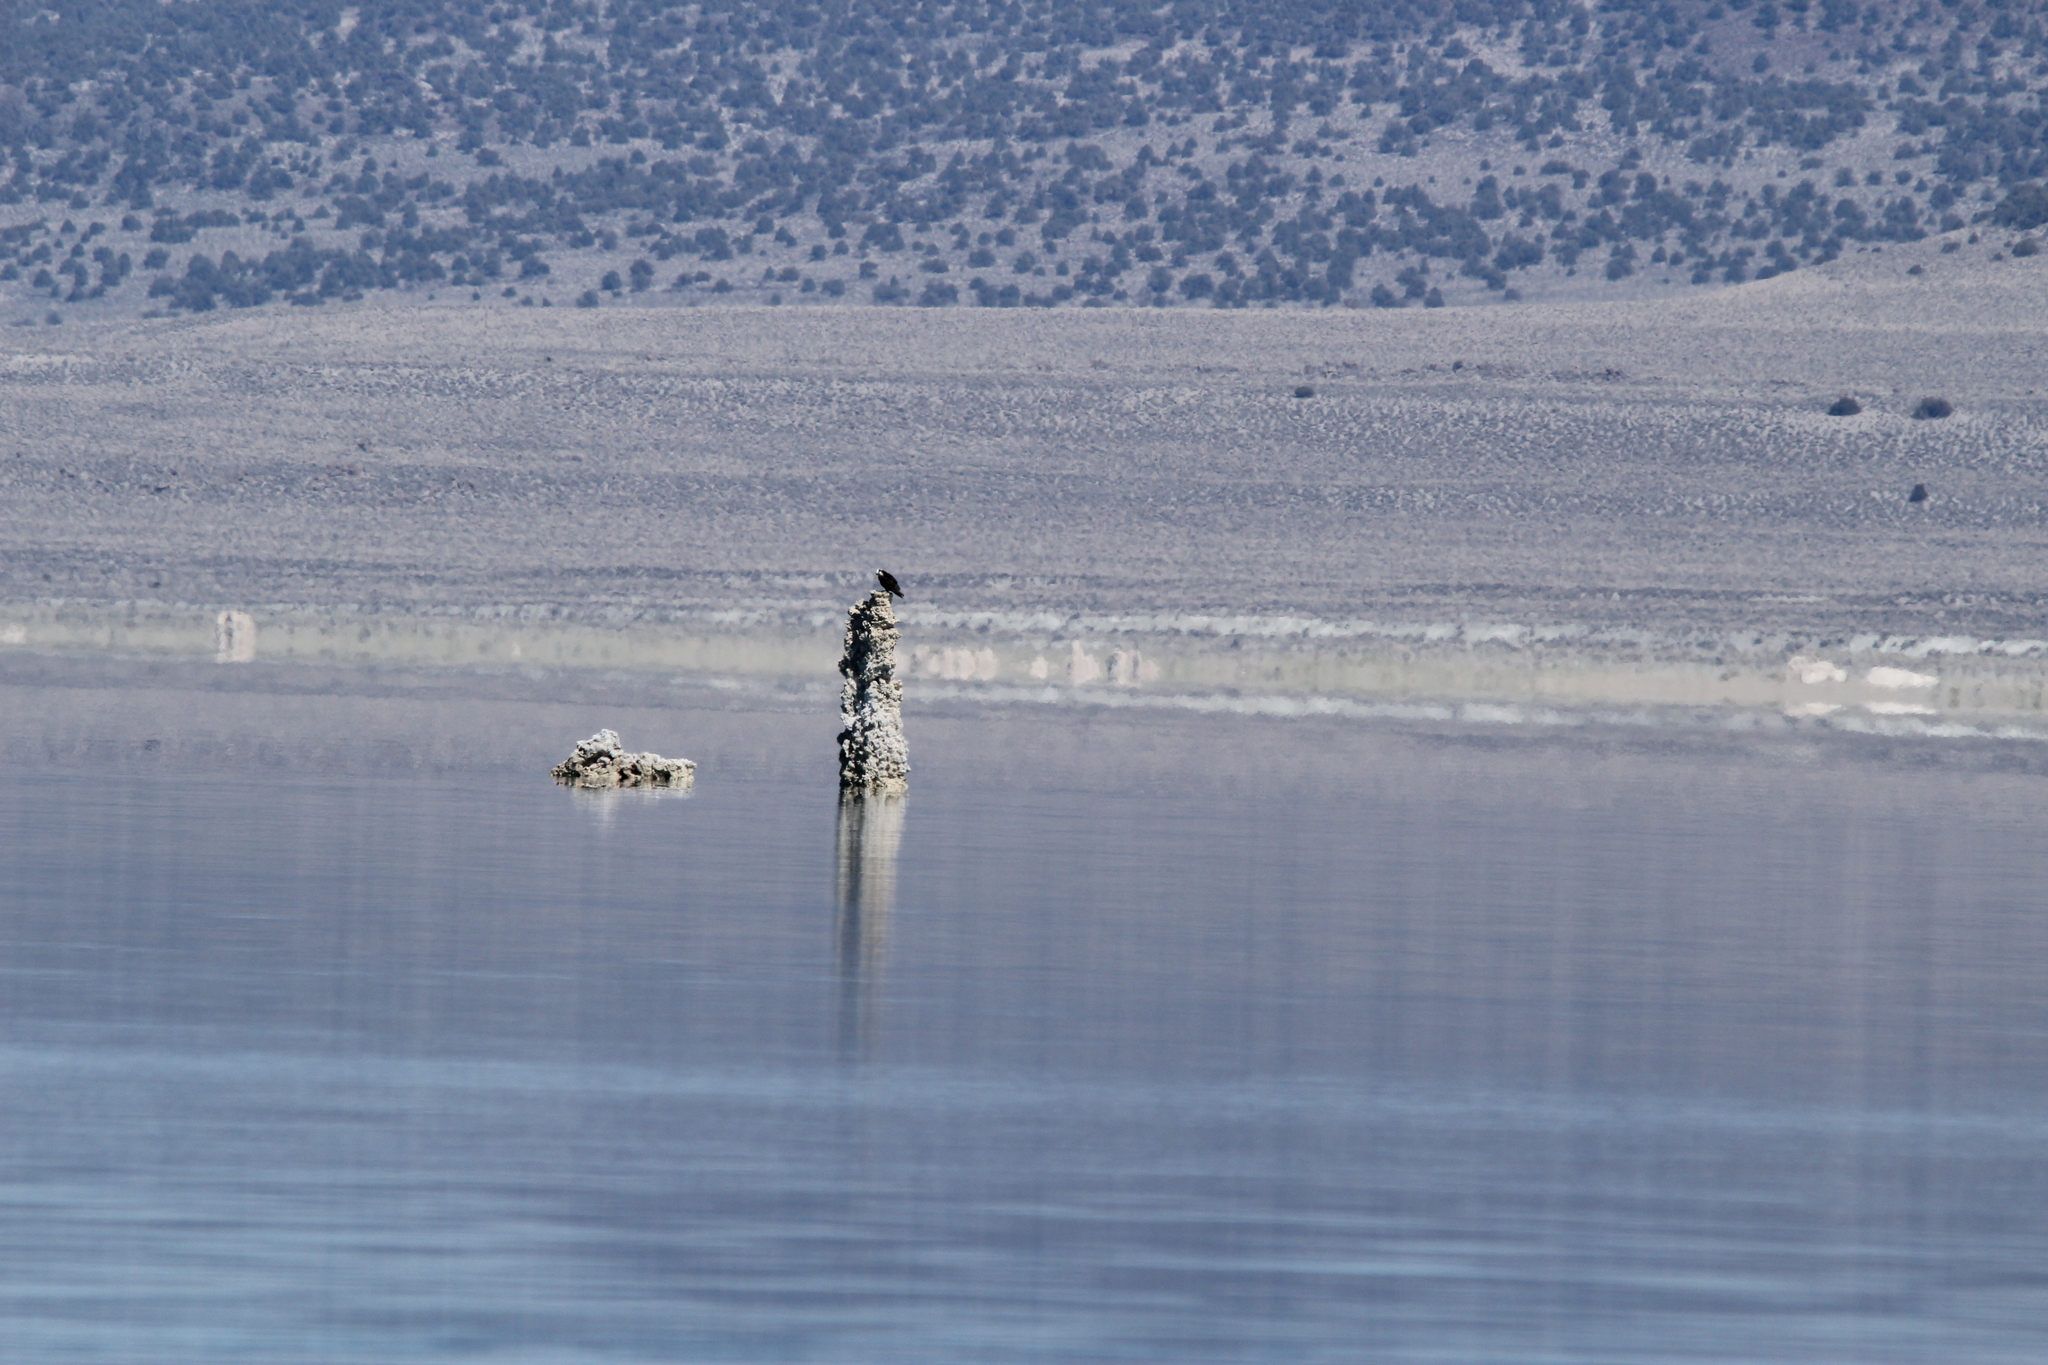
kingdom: Animalia
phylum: Chordata
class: Aves
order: Accipitriformes
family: Pandionidae
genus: Pandion
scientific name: Pandion haliaetus
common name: Osprey
